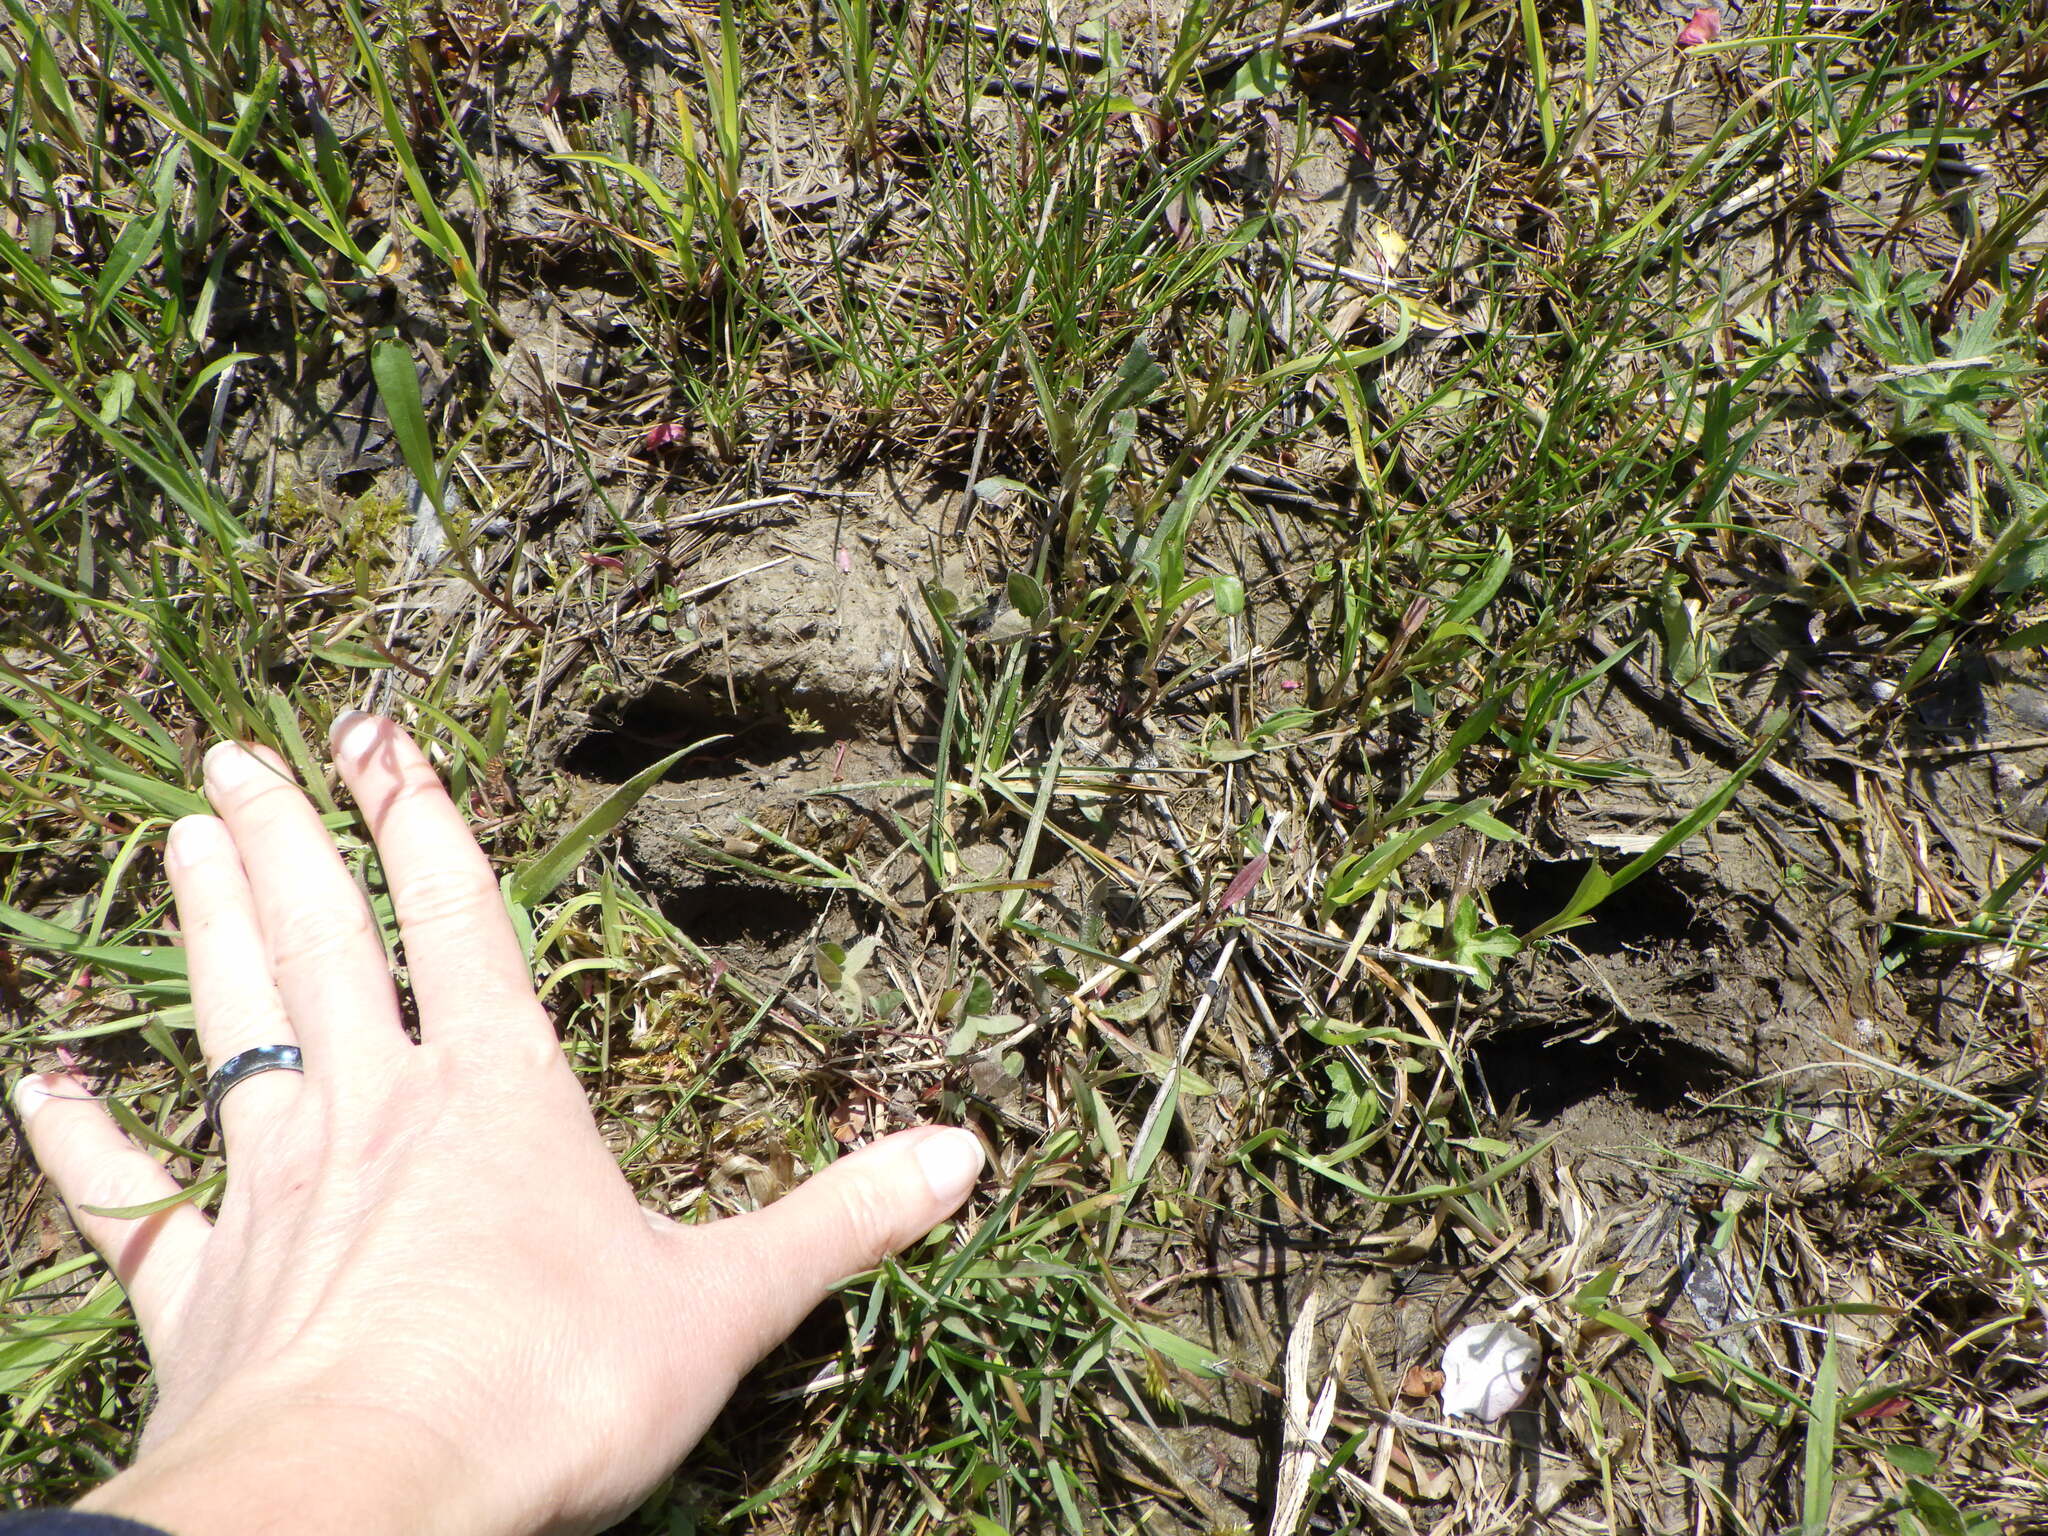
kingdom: Animalia
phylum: Chordata
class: Mammalia
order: Artiodactyla
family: Cervidae
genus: Odocoileus
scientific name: Odocoileus virginianus
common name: White-tailed deer
